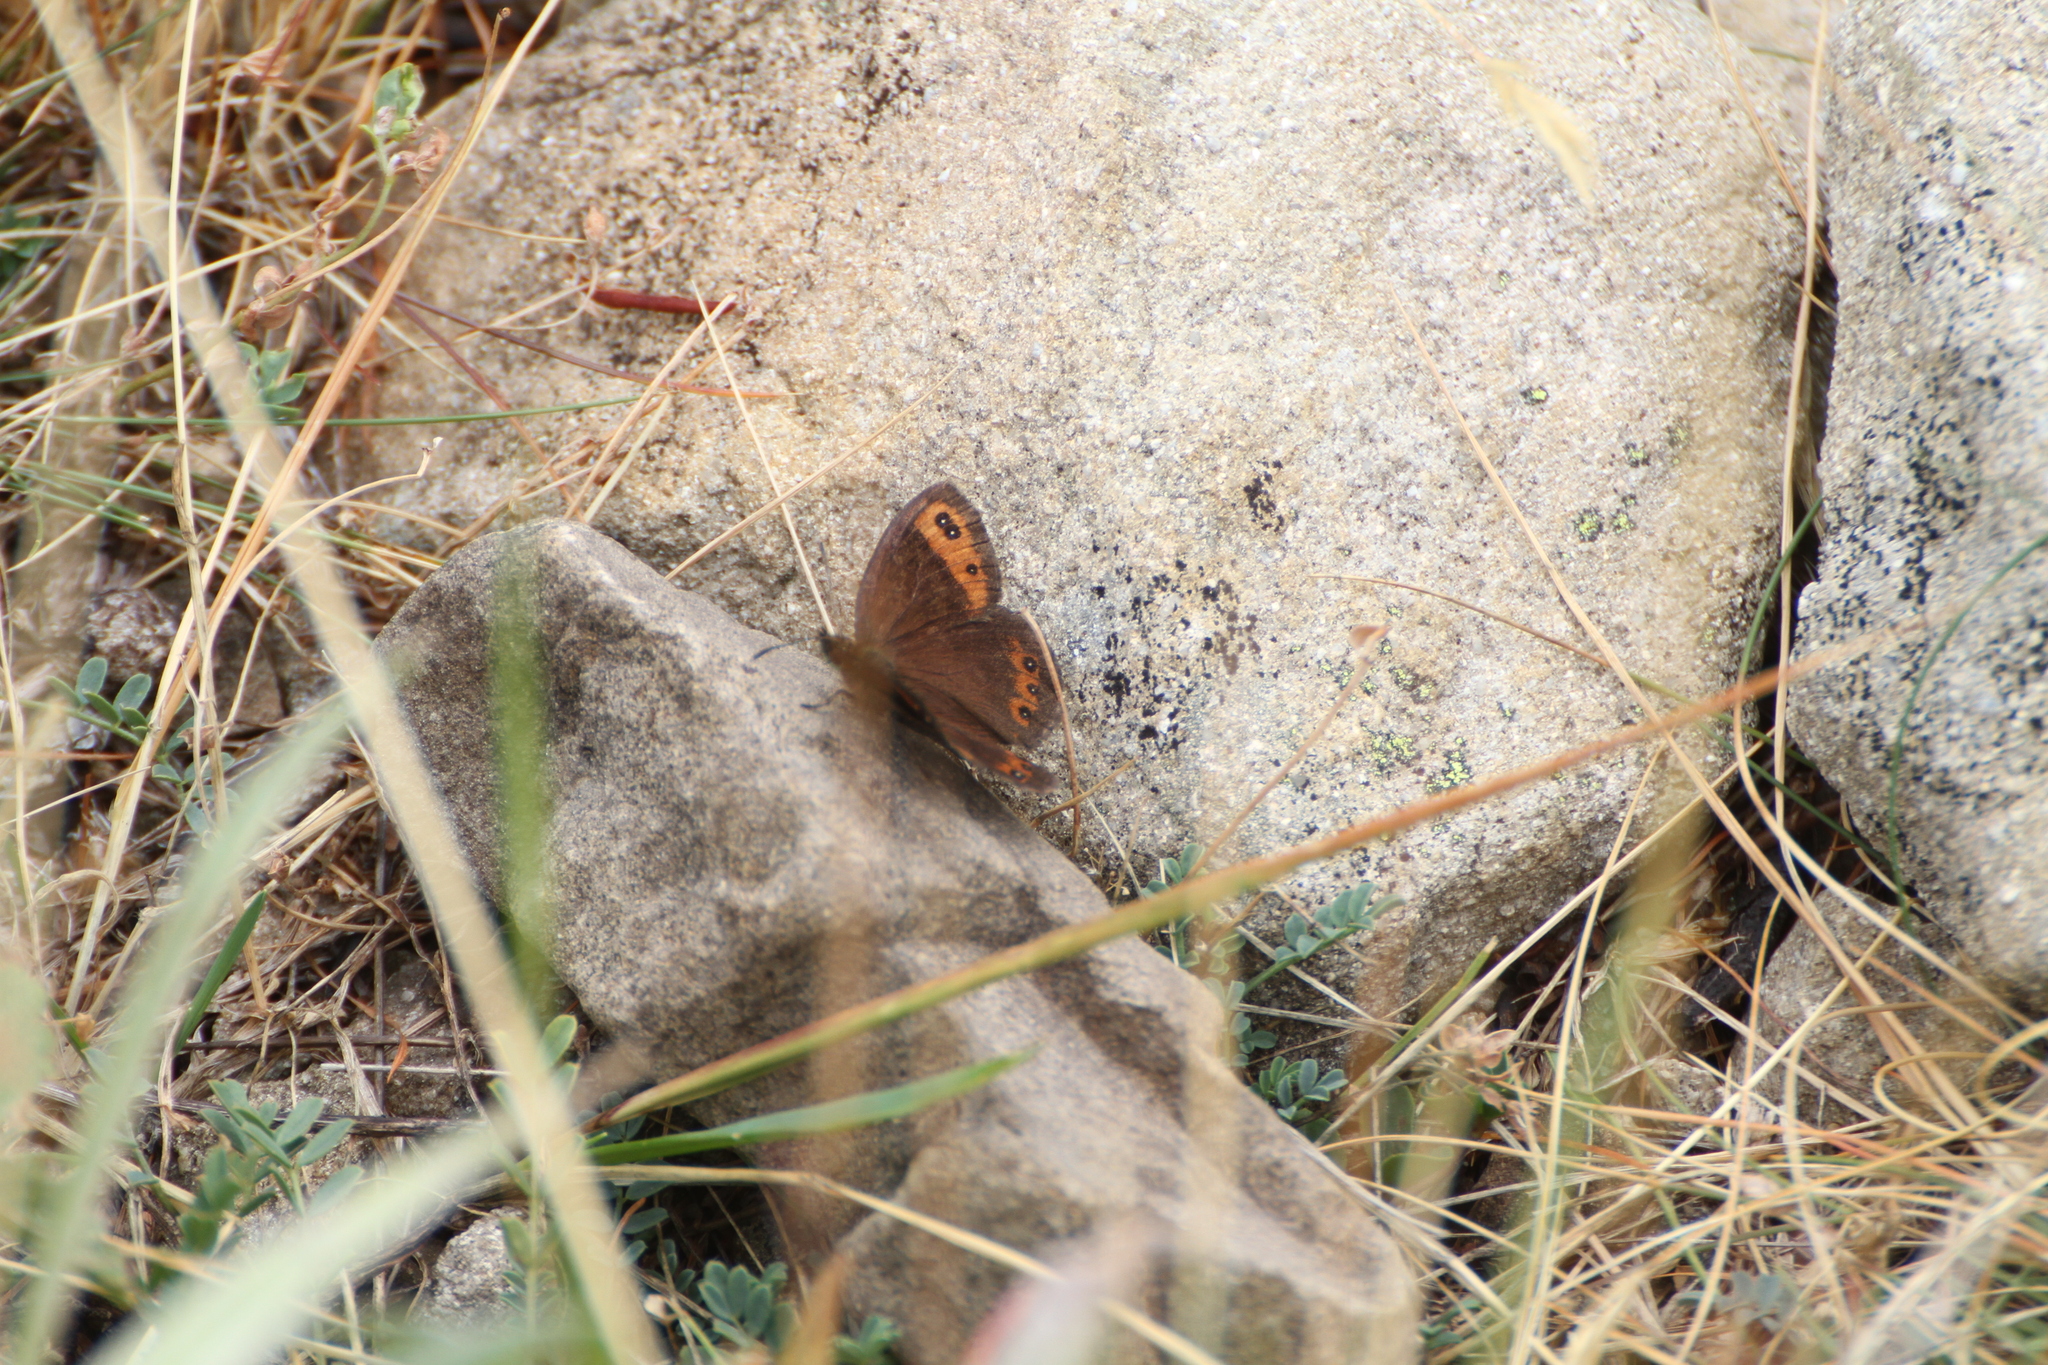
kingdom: Animalia
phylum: Arthropoda
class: Insecta
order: Lepidoptera
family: Nymphalidae
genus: Erebia
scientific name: Erebia neoridas
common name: Autumn ringlet
